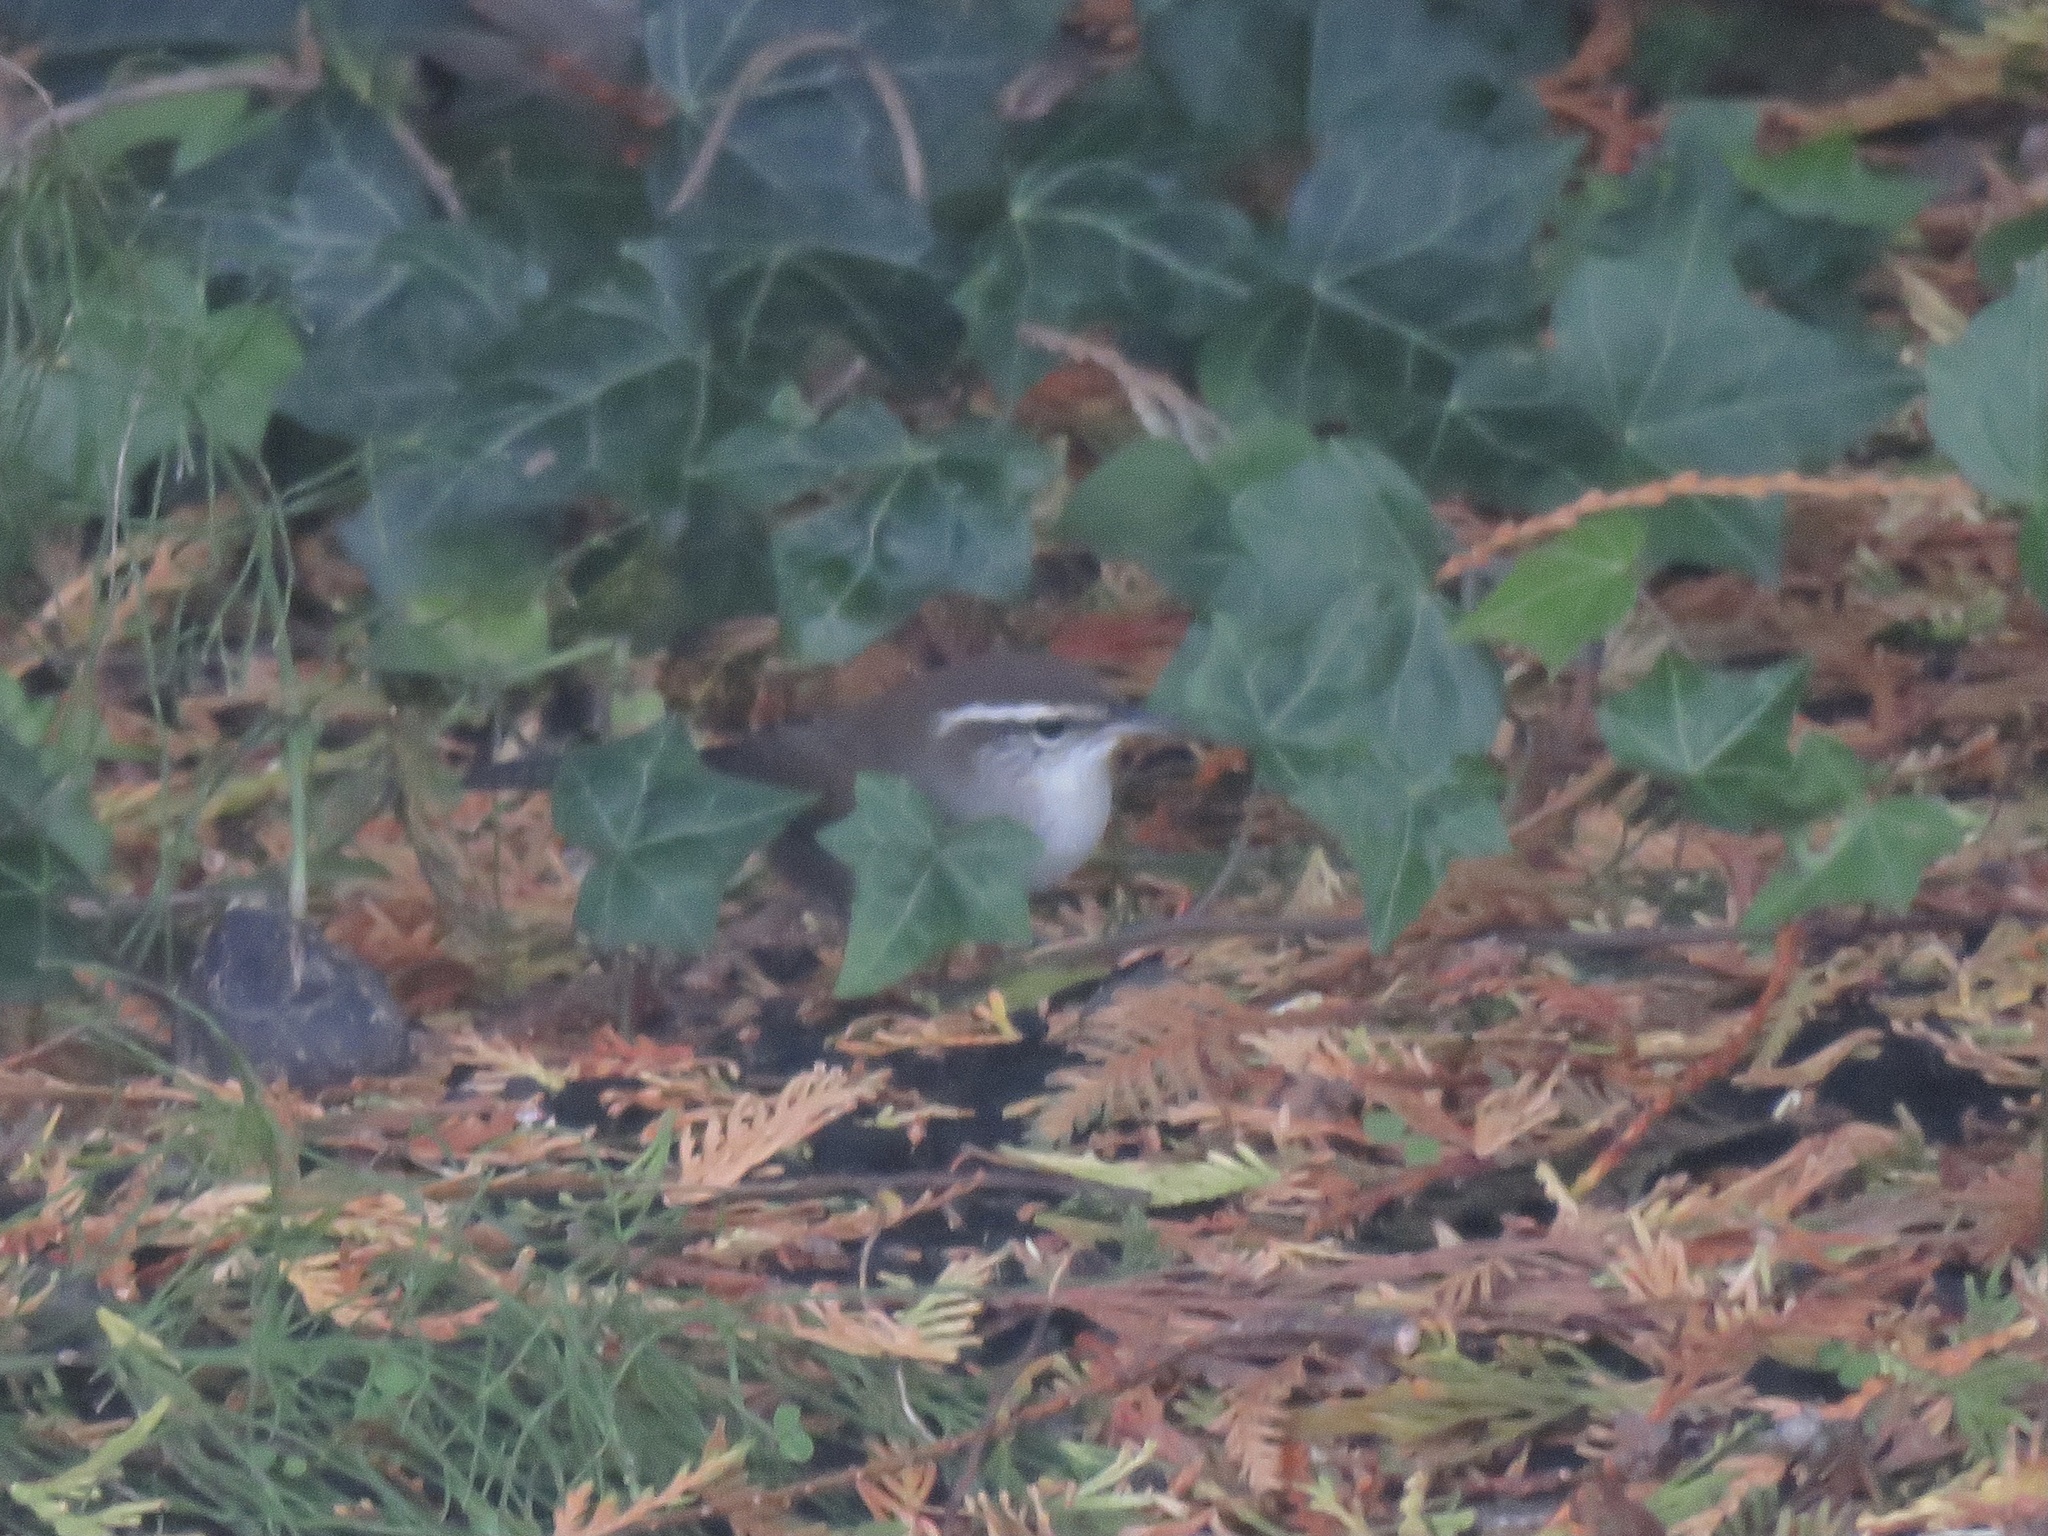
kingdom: Animalia
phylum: Chordata
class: Aves
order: Passeriformes
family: Troglodytidae
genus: Thryomanes
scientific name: Thryomanes bewickii
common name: Bewick's wren
